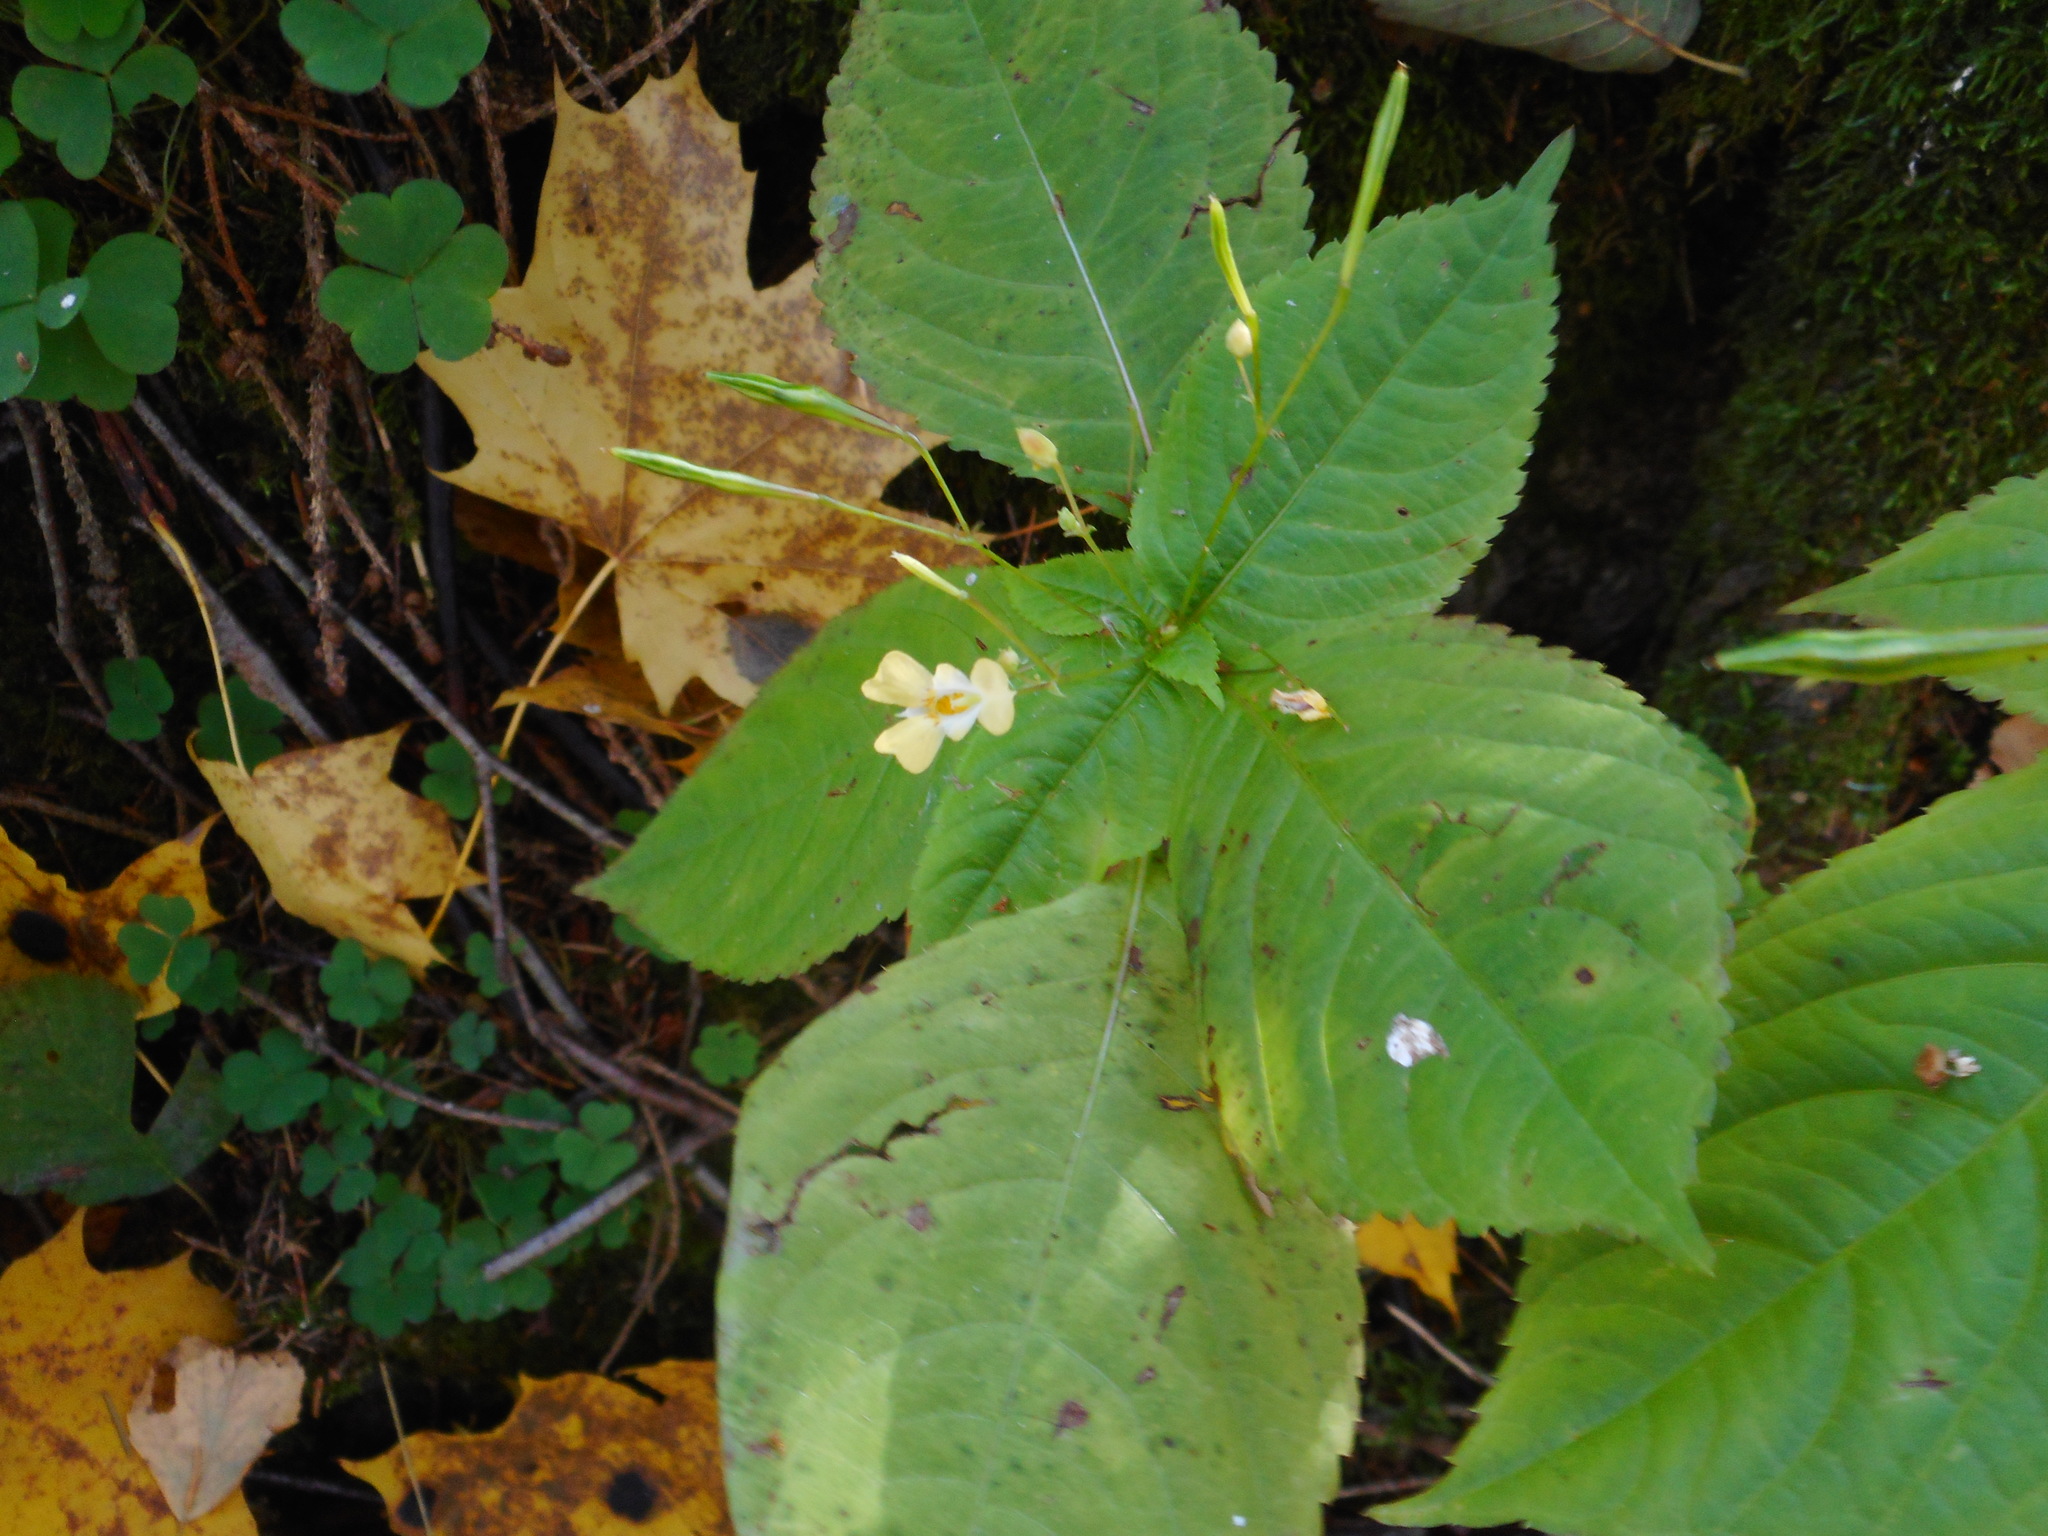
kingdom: Plantae
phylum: Tracheophyta
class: Magnoliopsida
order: Ericales
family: Balsaminaceae
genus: Impatiens
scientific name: Impatiens parviflora
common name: Small balsam
